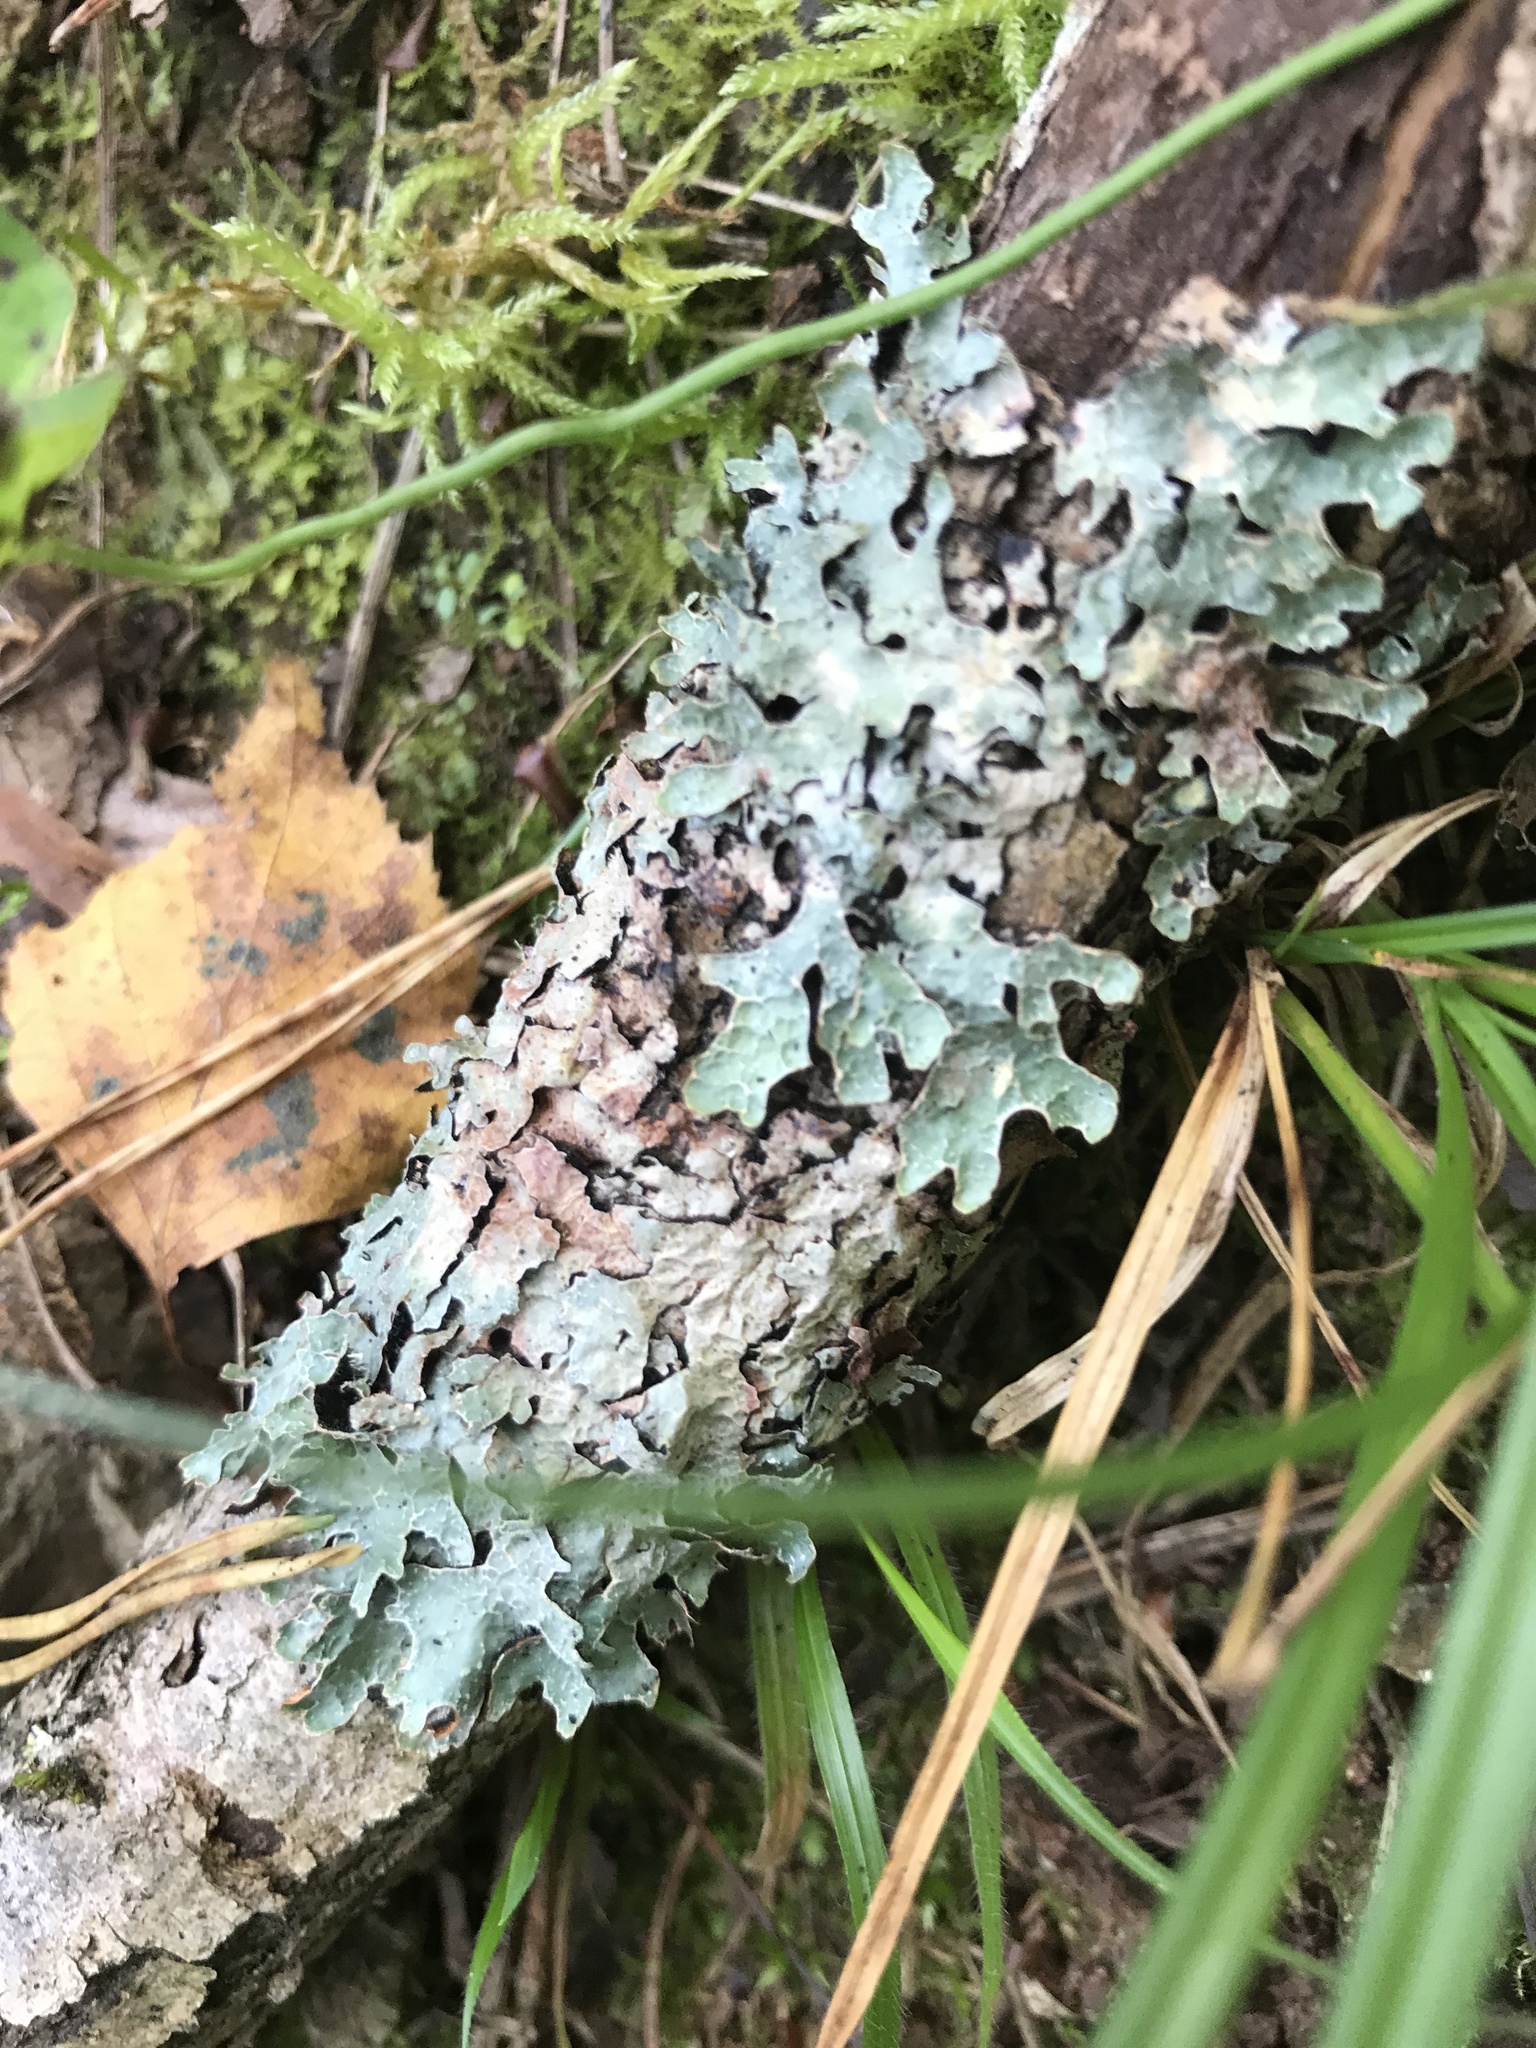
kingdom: Fungi
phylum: Ascomycota
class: Lecanoromycetes
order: Lecanorales
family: Parmeliaceae
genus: Parmelia
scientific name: Parmelia sulcata
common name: Netted shield lichen
